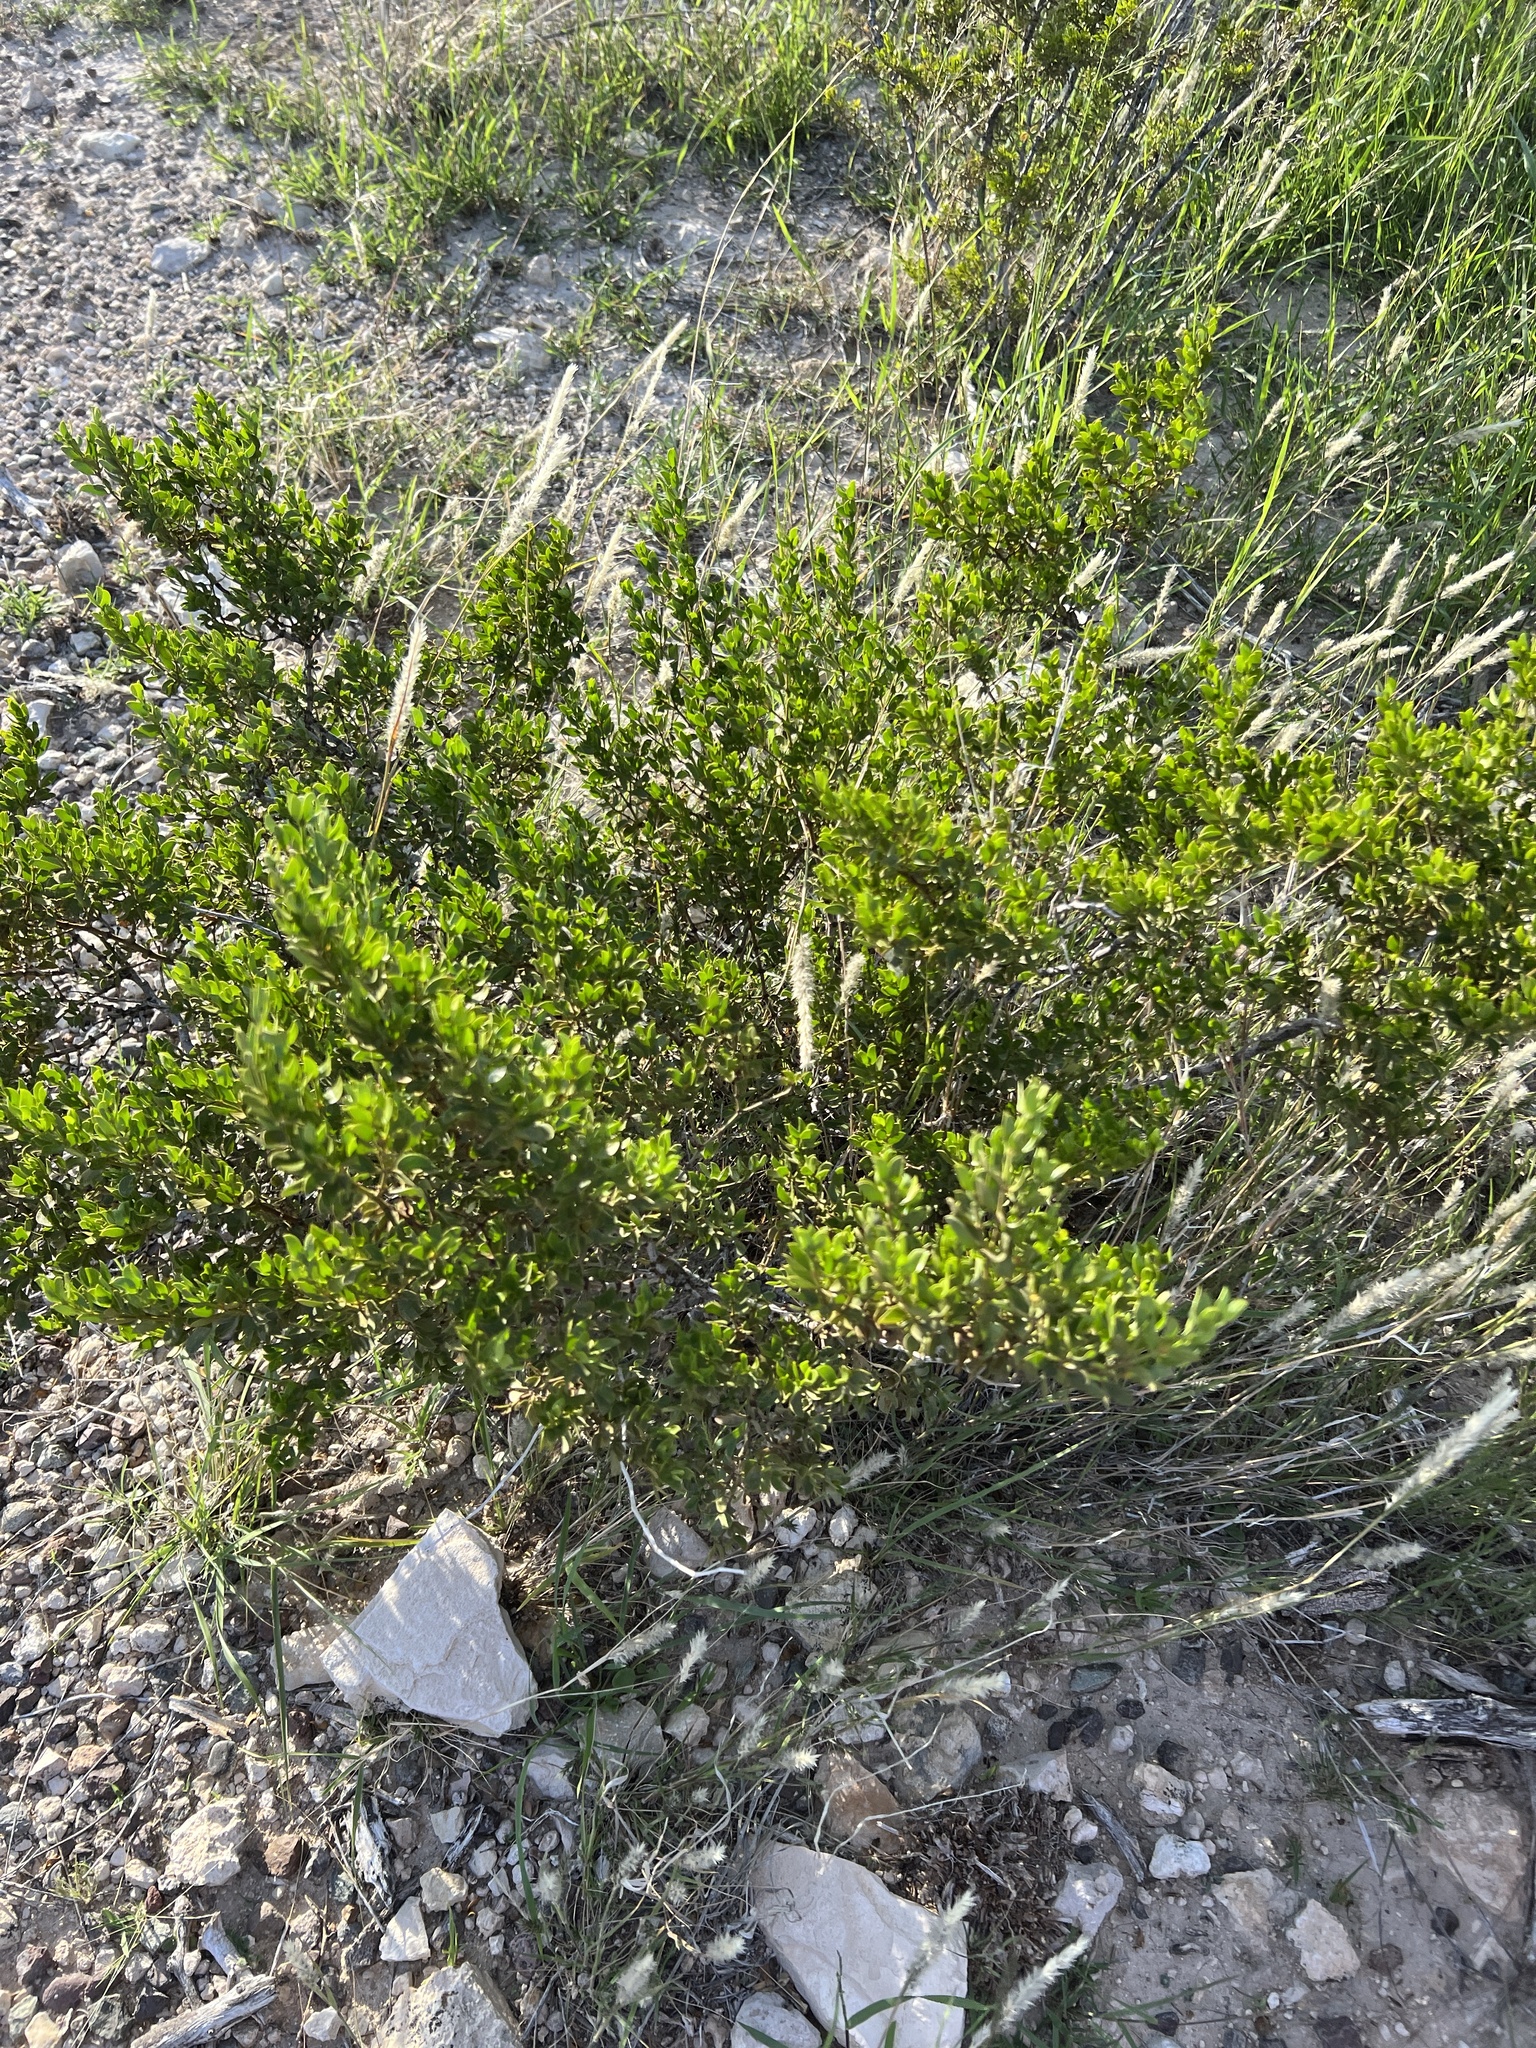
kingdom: Plantae
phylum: Tracheophyta
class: Magnoliopsida
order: Zygophyllales
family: Zygophyllaceae
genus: Larrea
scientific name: Larrea tridentata
